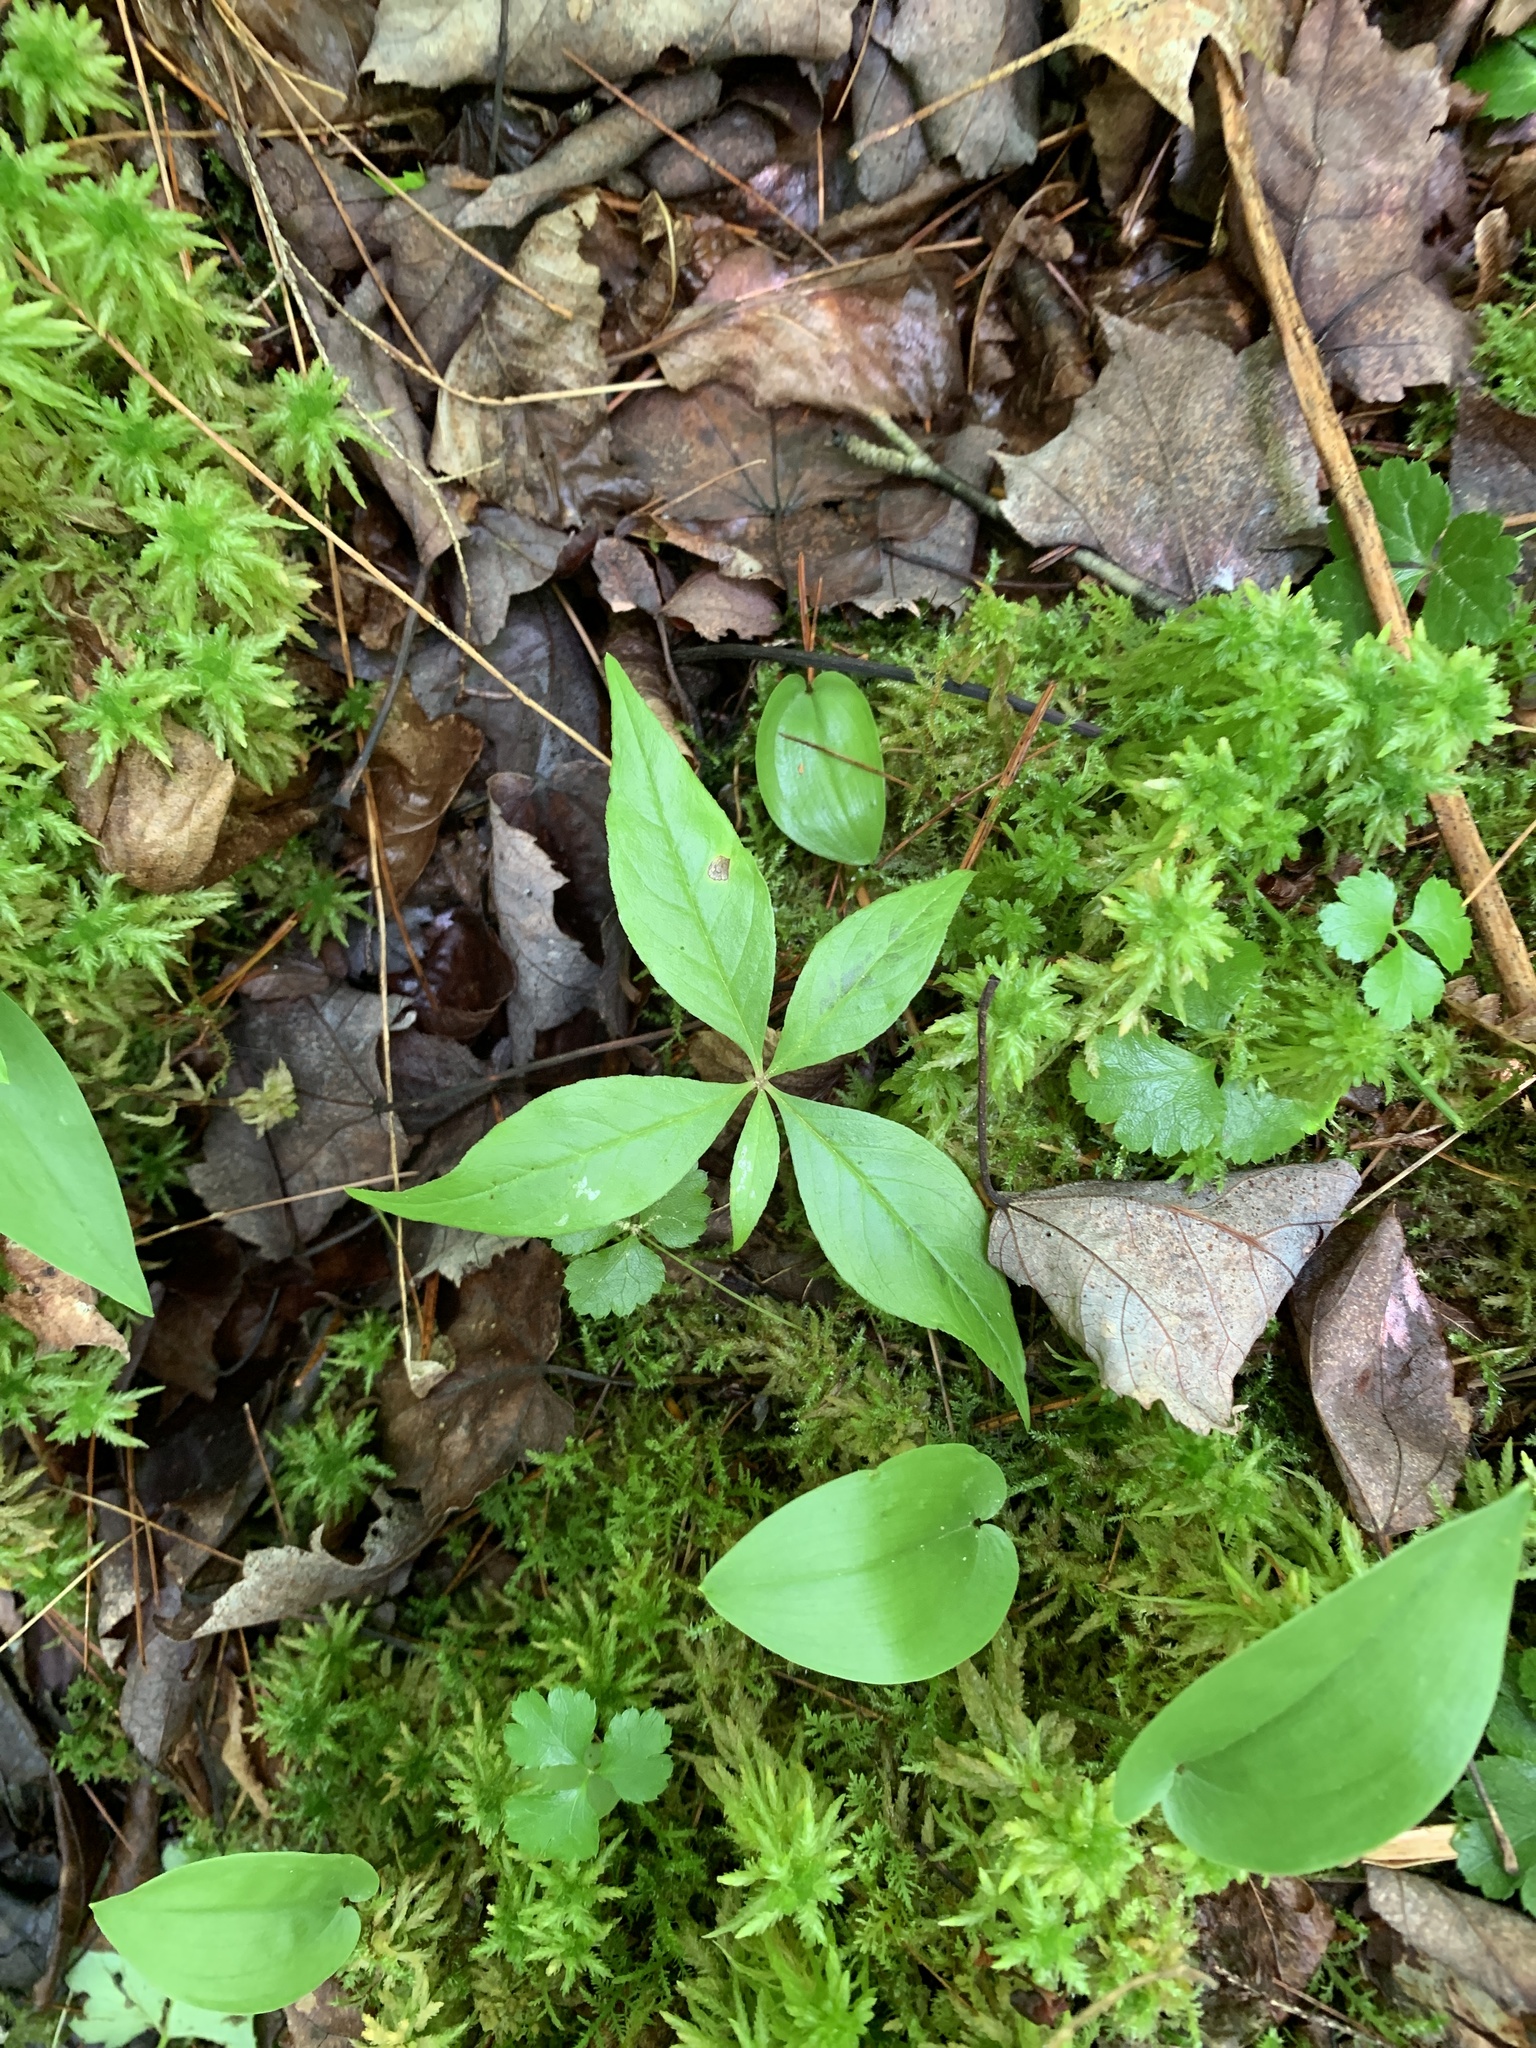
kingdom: Plantae
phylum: Tracheophyta
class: Magnoliopsida
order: Ericales
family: Primulaceae
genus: Lysimachia
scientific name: Lysimachia borealis
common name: American starflower
